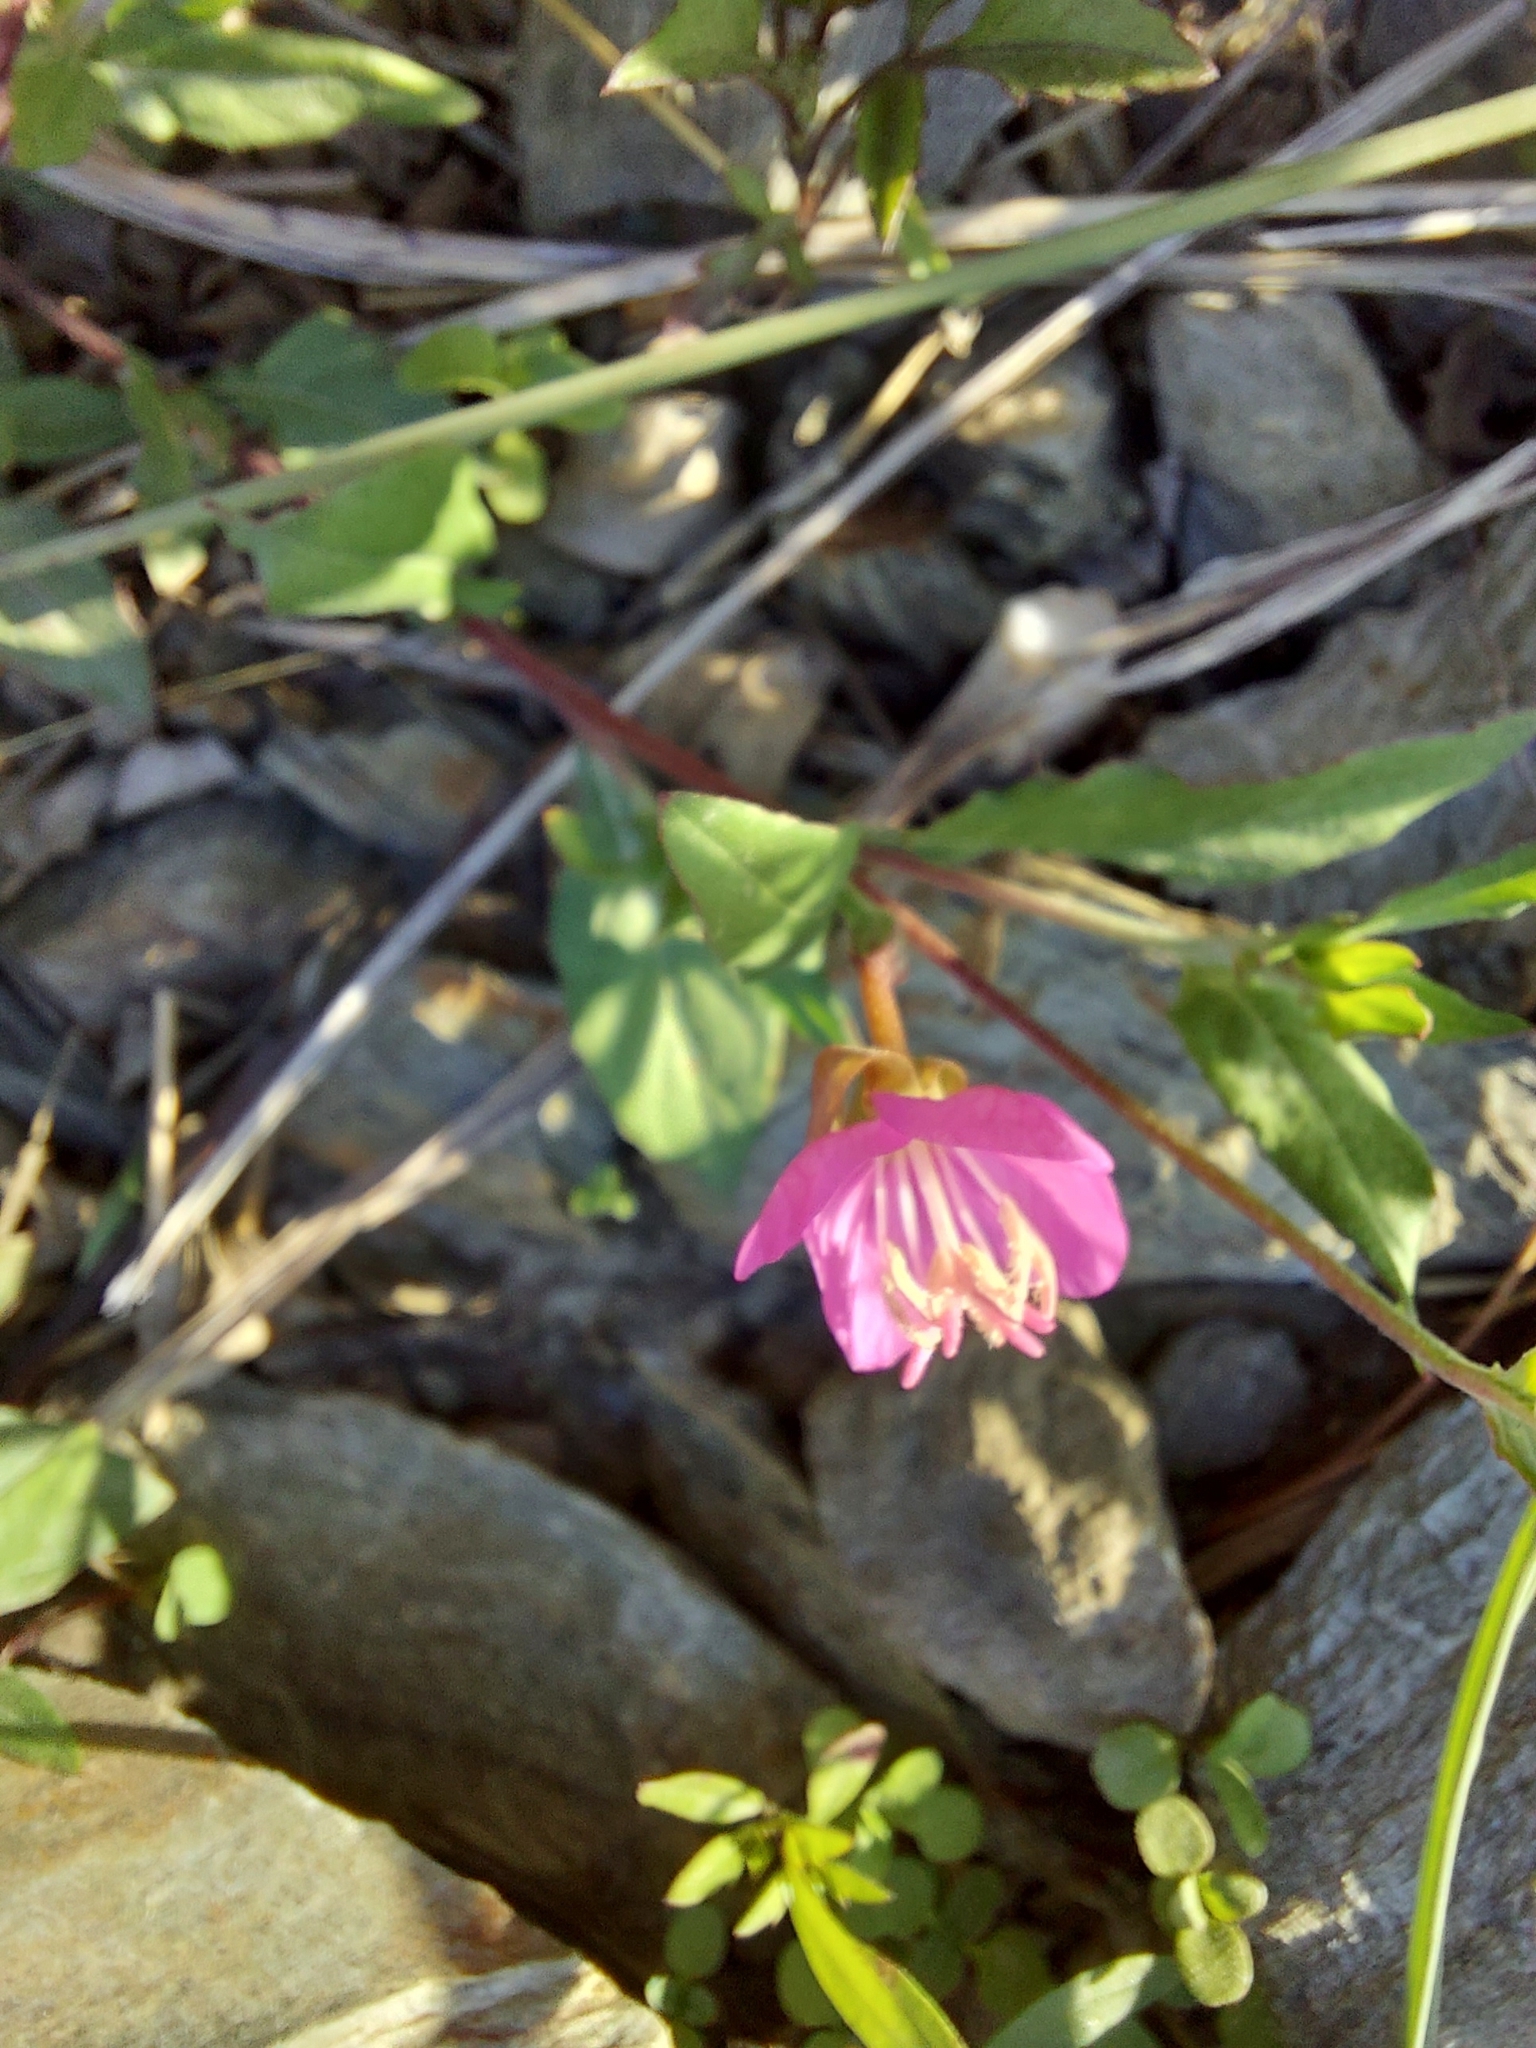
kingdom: Plantae
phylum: Tracheophyta
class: Magnoliopsida
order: Myrtales
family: Onagraceae
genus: Oenothera
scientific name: Oenothera rosea
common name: Rosy evening-primrose
